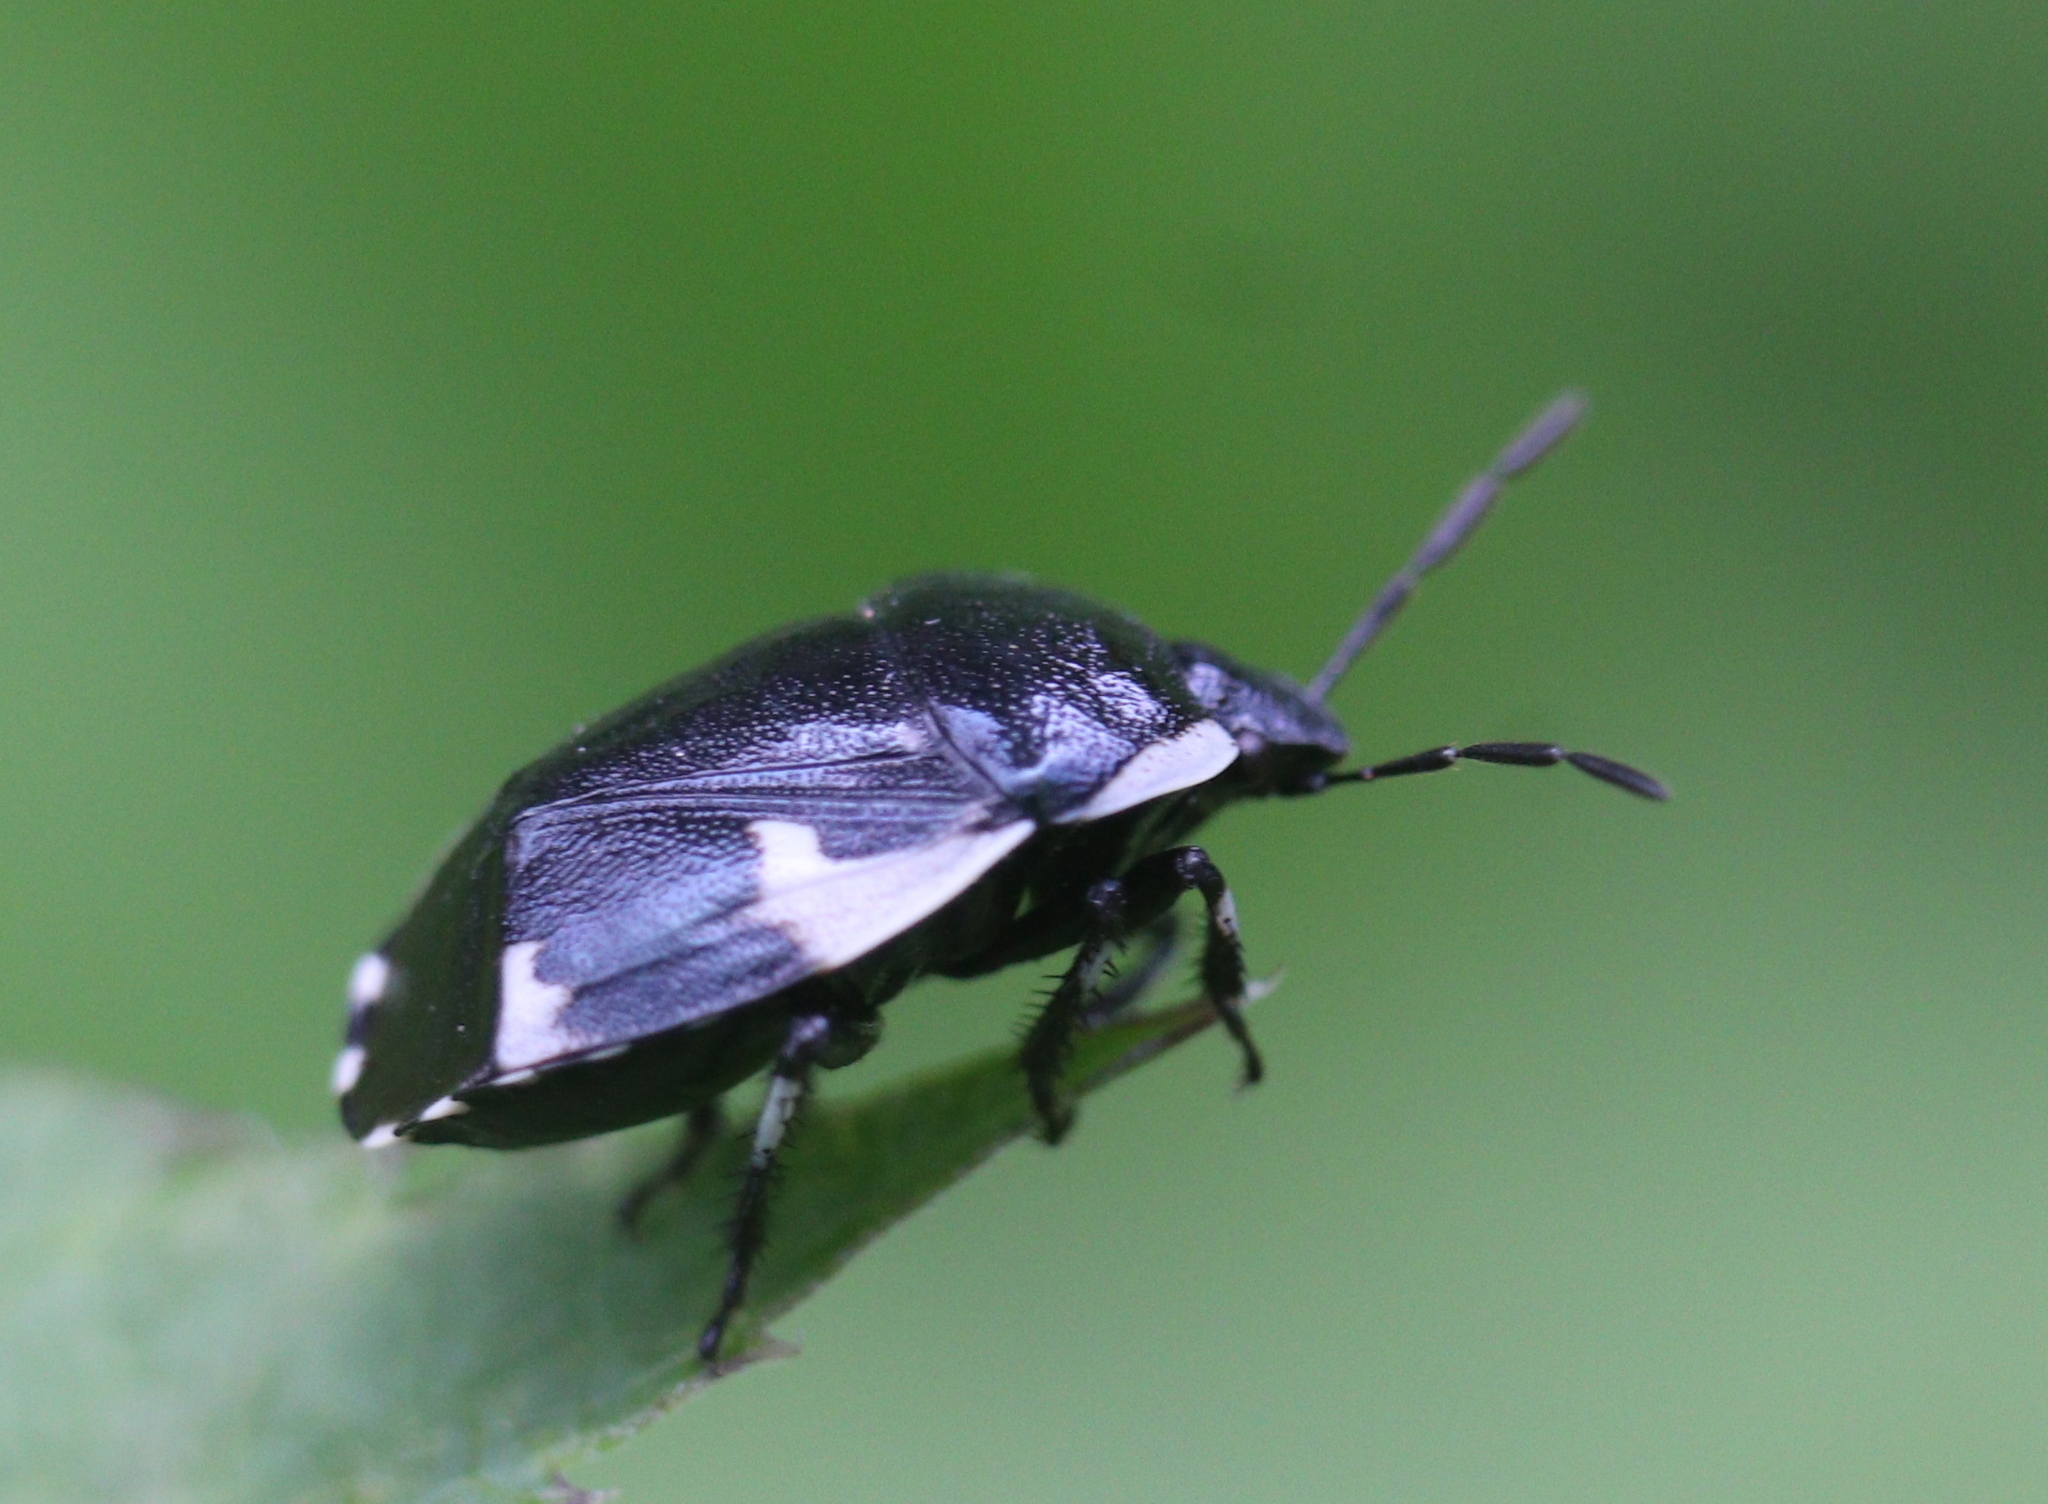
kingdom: Animalia
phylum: Arthropoda
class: Insecta
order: Hemiptera
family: Cydnidae
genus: Tritomegas
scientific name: Tritomegas sexmaculatus
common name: Rambur's pied shieldbug
